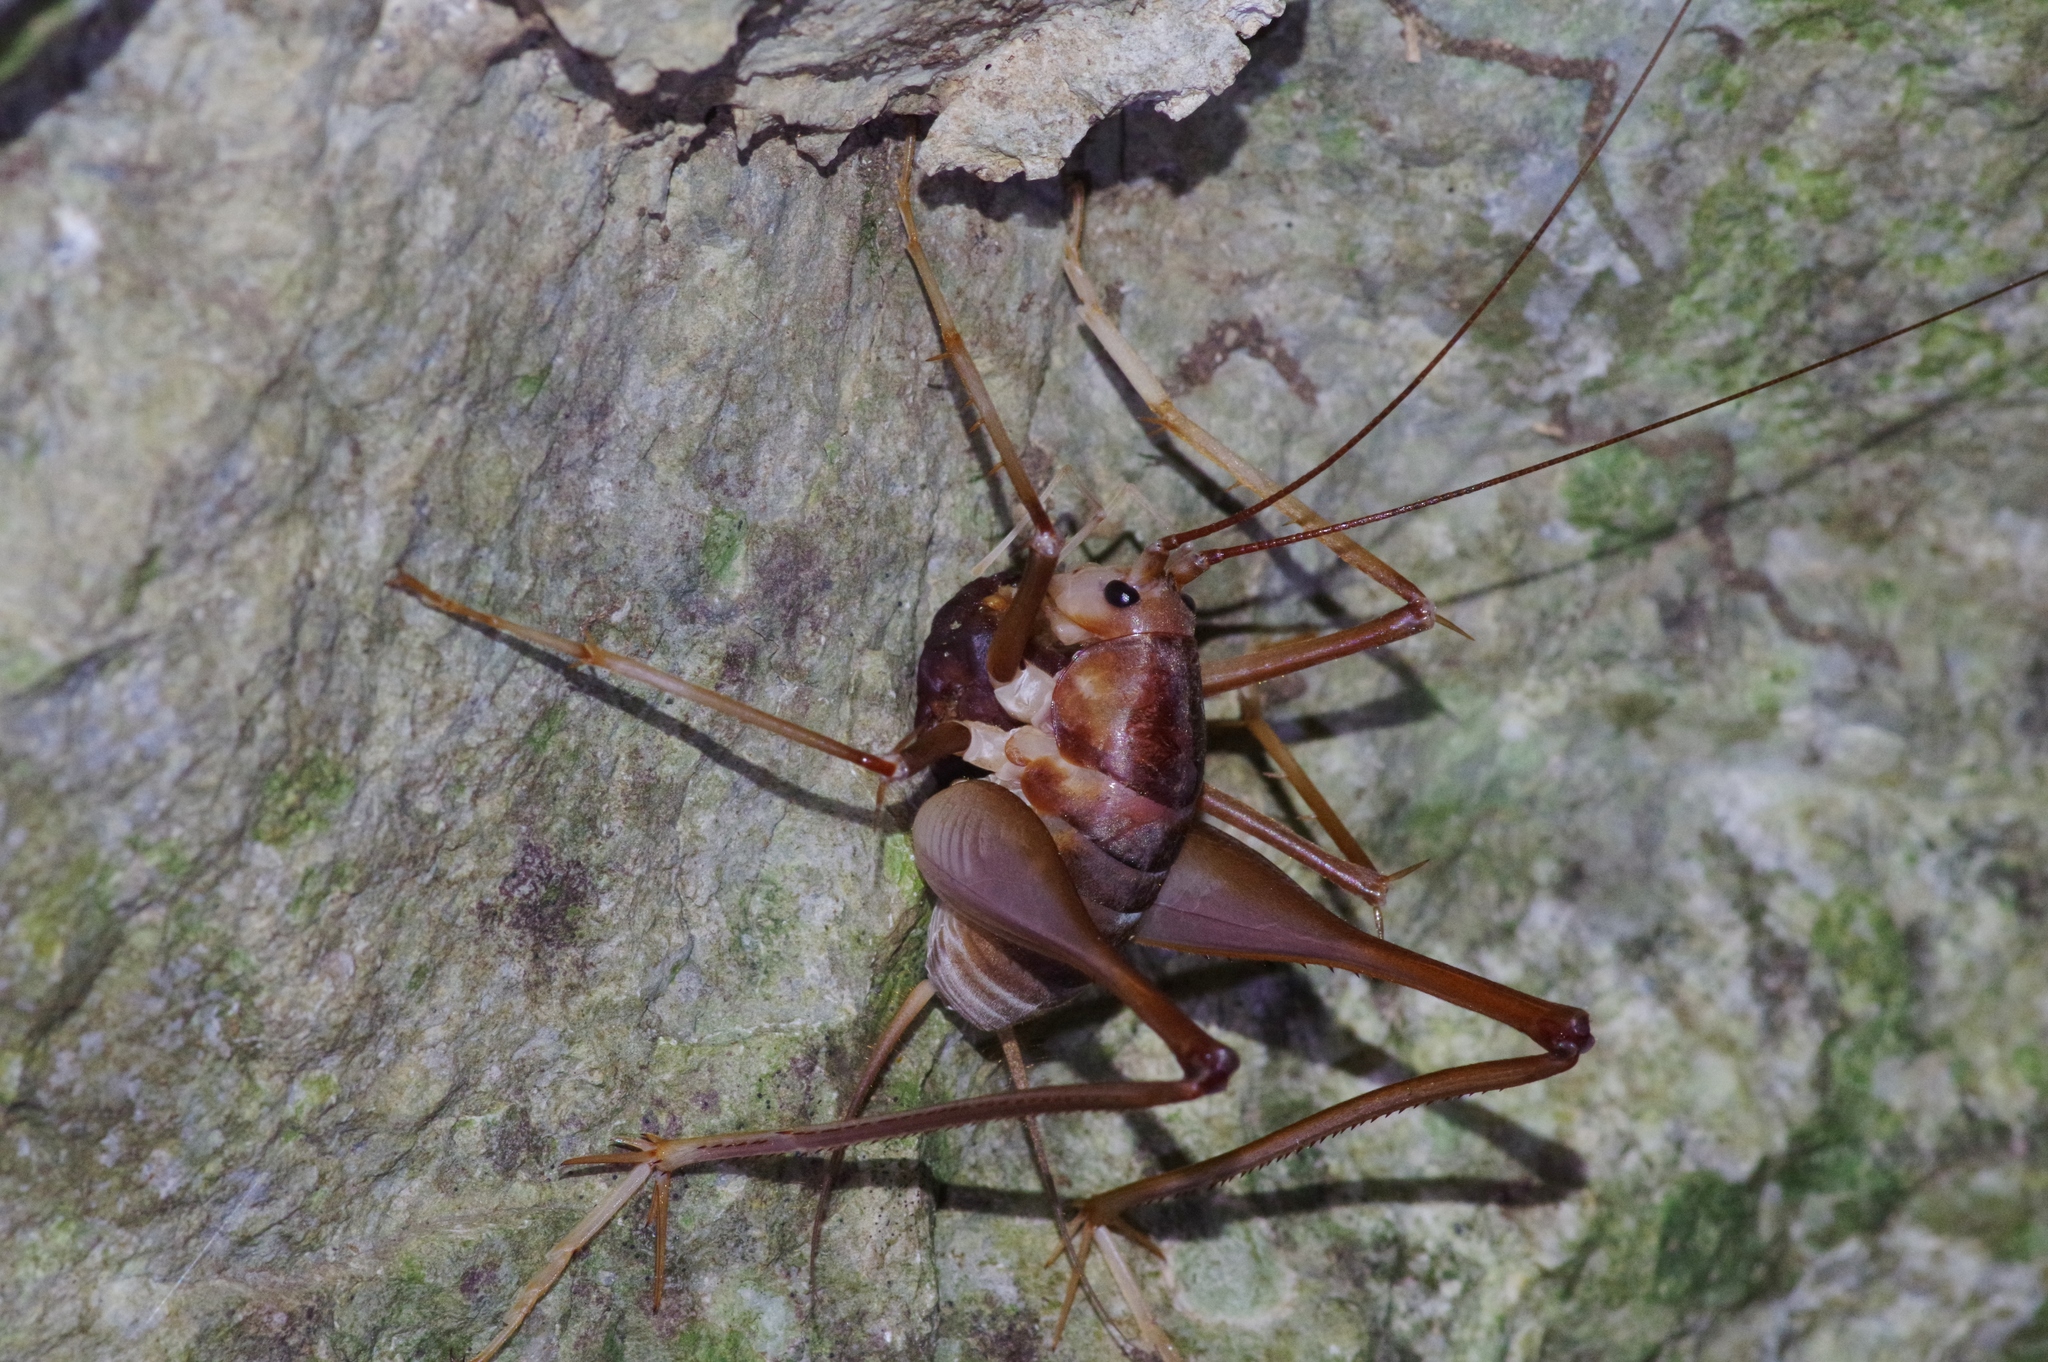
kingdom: Animalia
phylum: Arthropoda
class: Insecta
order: Orthoptera
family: Rhaphidophoridae
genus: Atachycines
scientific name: Atachycines apicalis
